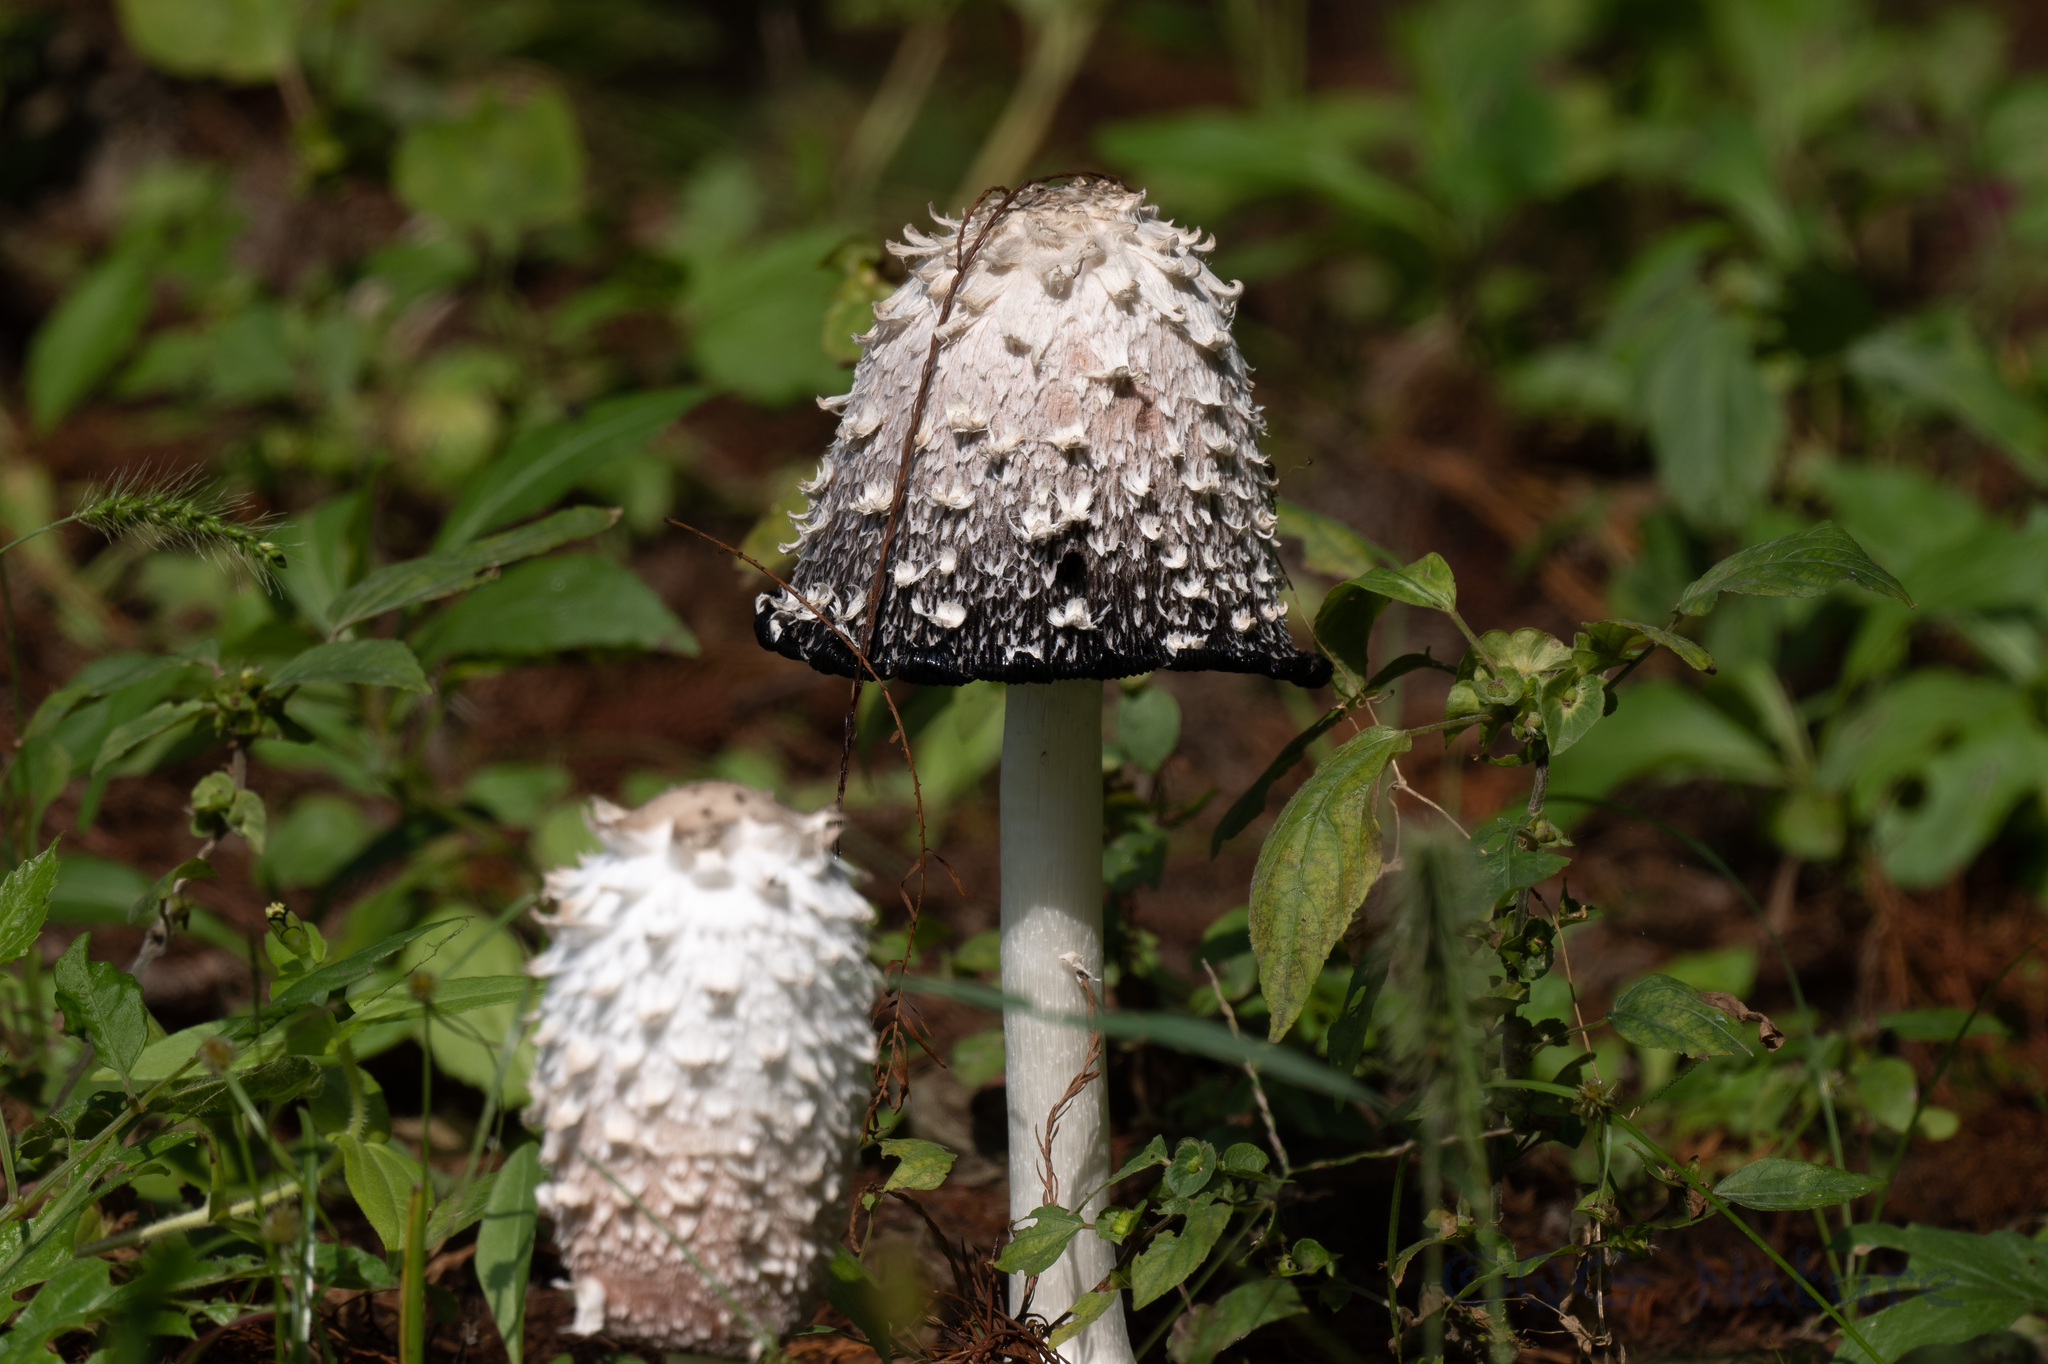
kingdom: Fungi
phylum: Basidiomycota
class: Agaricomycetes
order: Agaricales
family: Agaricaceae
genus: Coprinus
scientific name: Coprinus comatus
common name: Lawyer's wig
